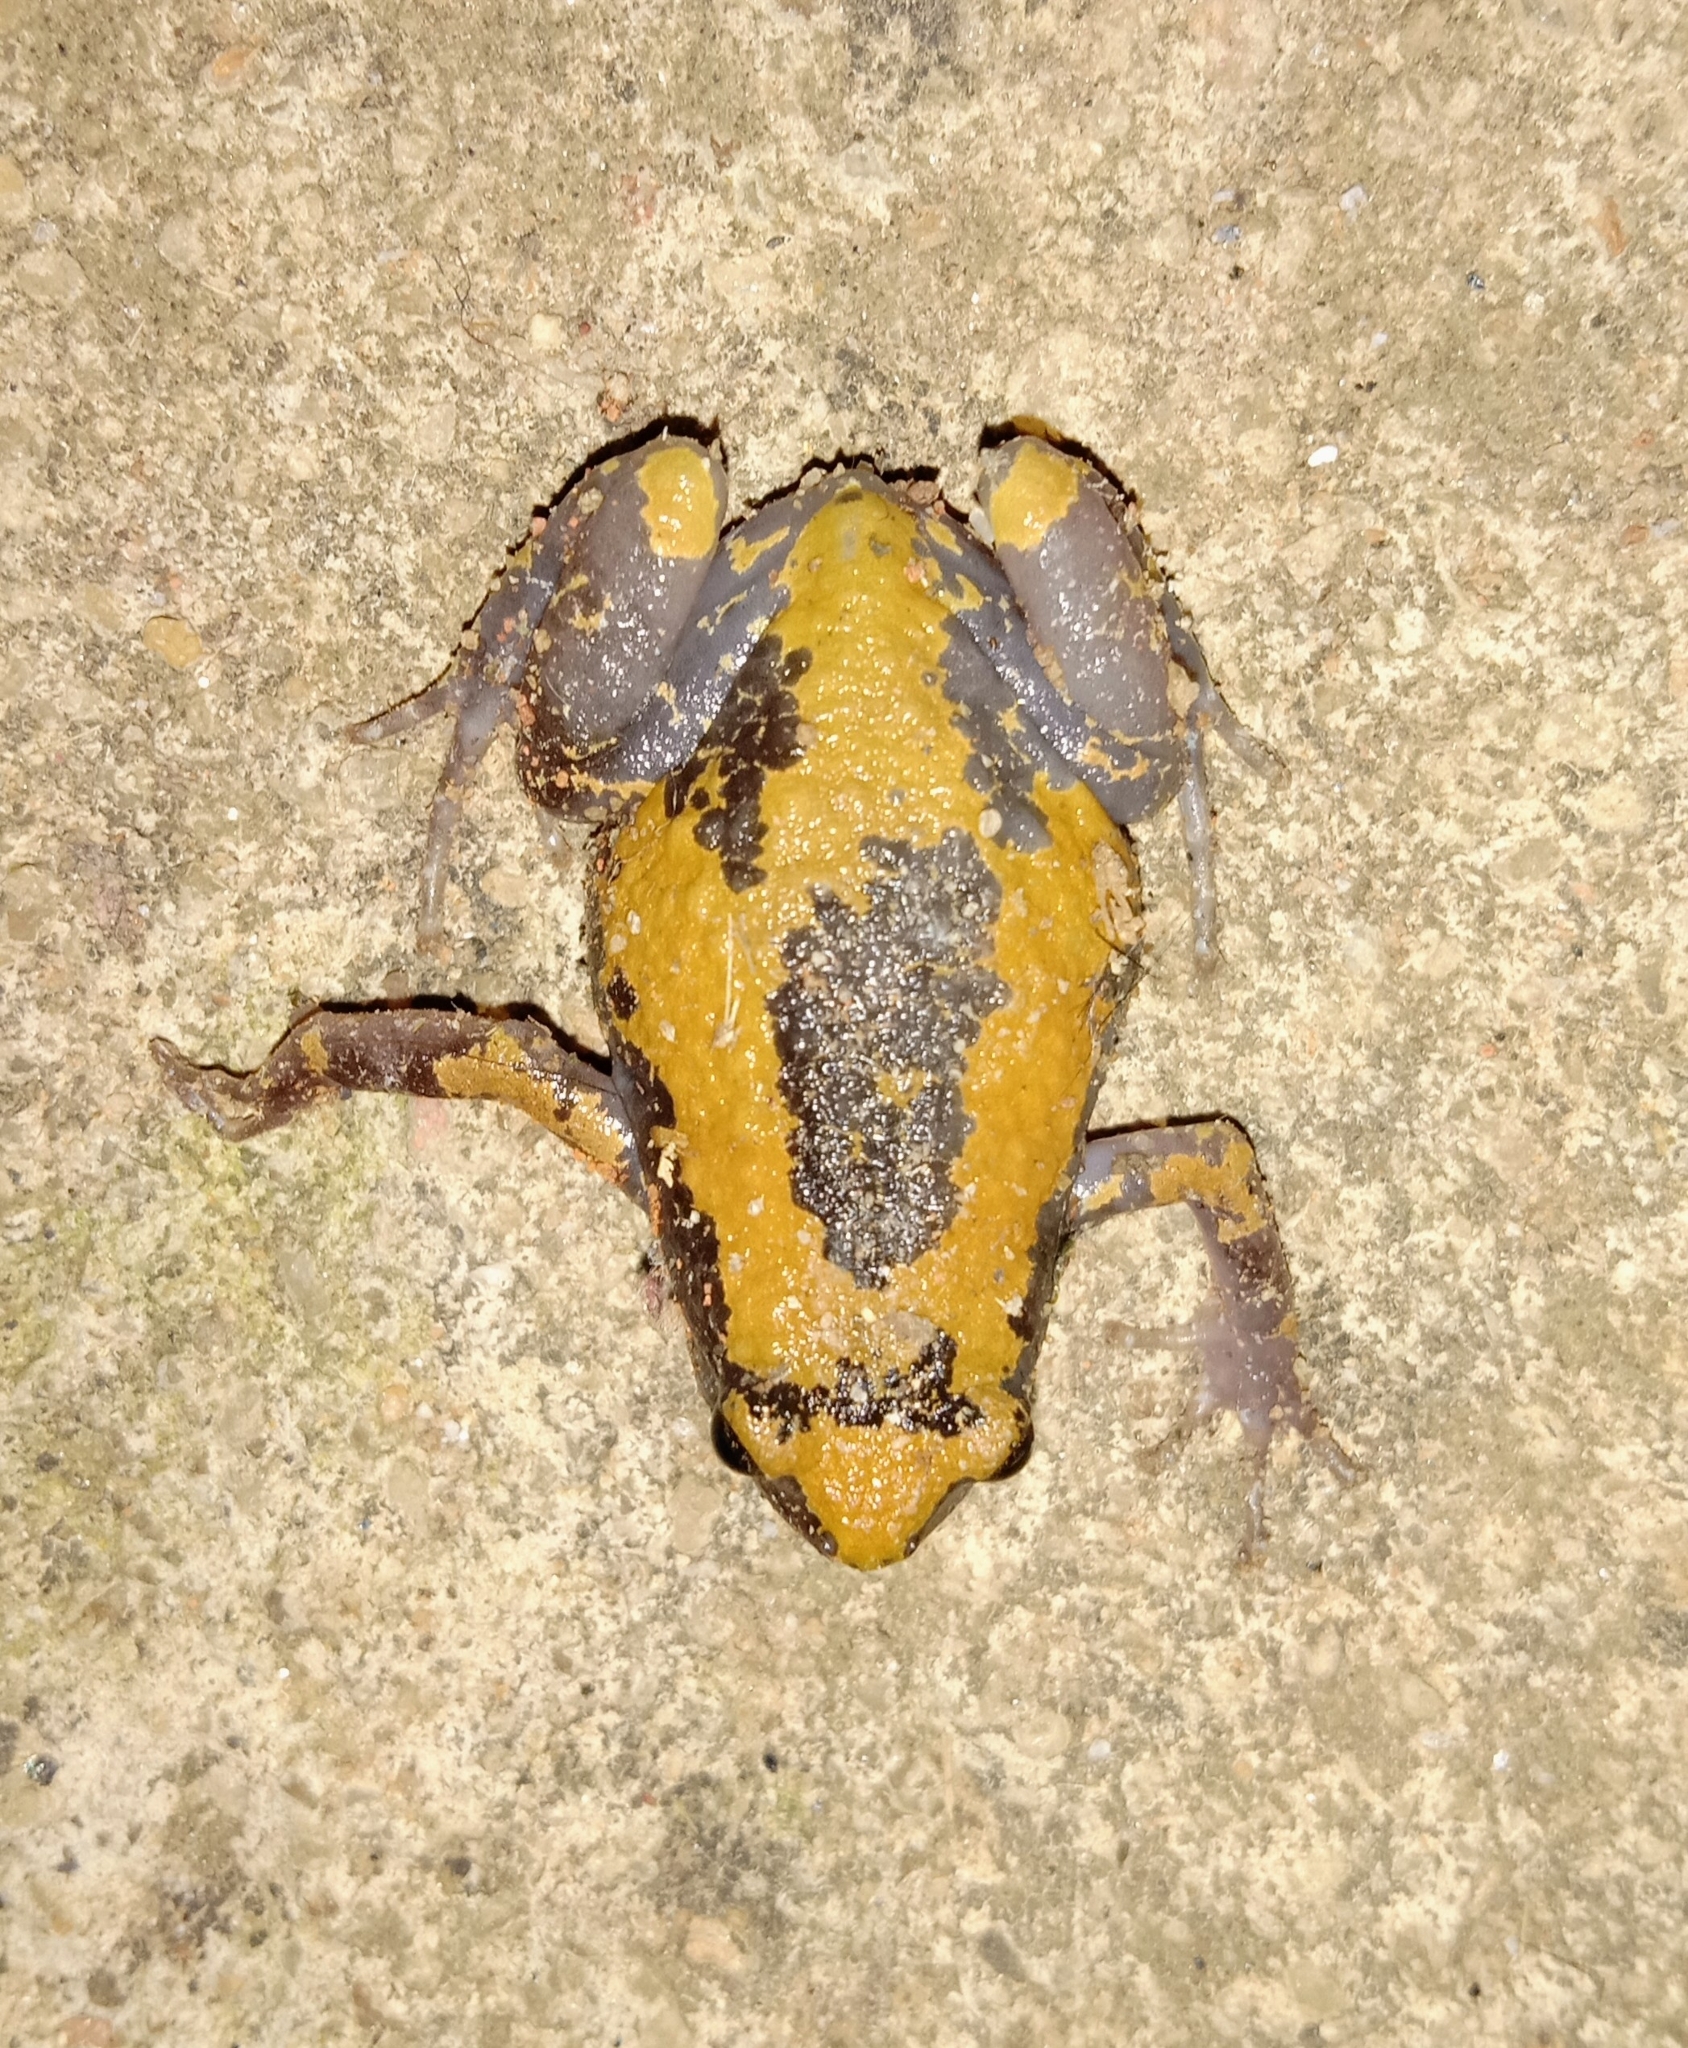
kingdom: Animalia
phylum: Chordata
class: Amphibia
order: Anura
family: Microhylidae
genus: Uperodon
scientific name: Uperodon triangularis
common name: Malabar dot frog
